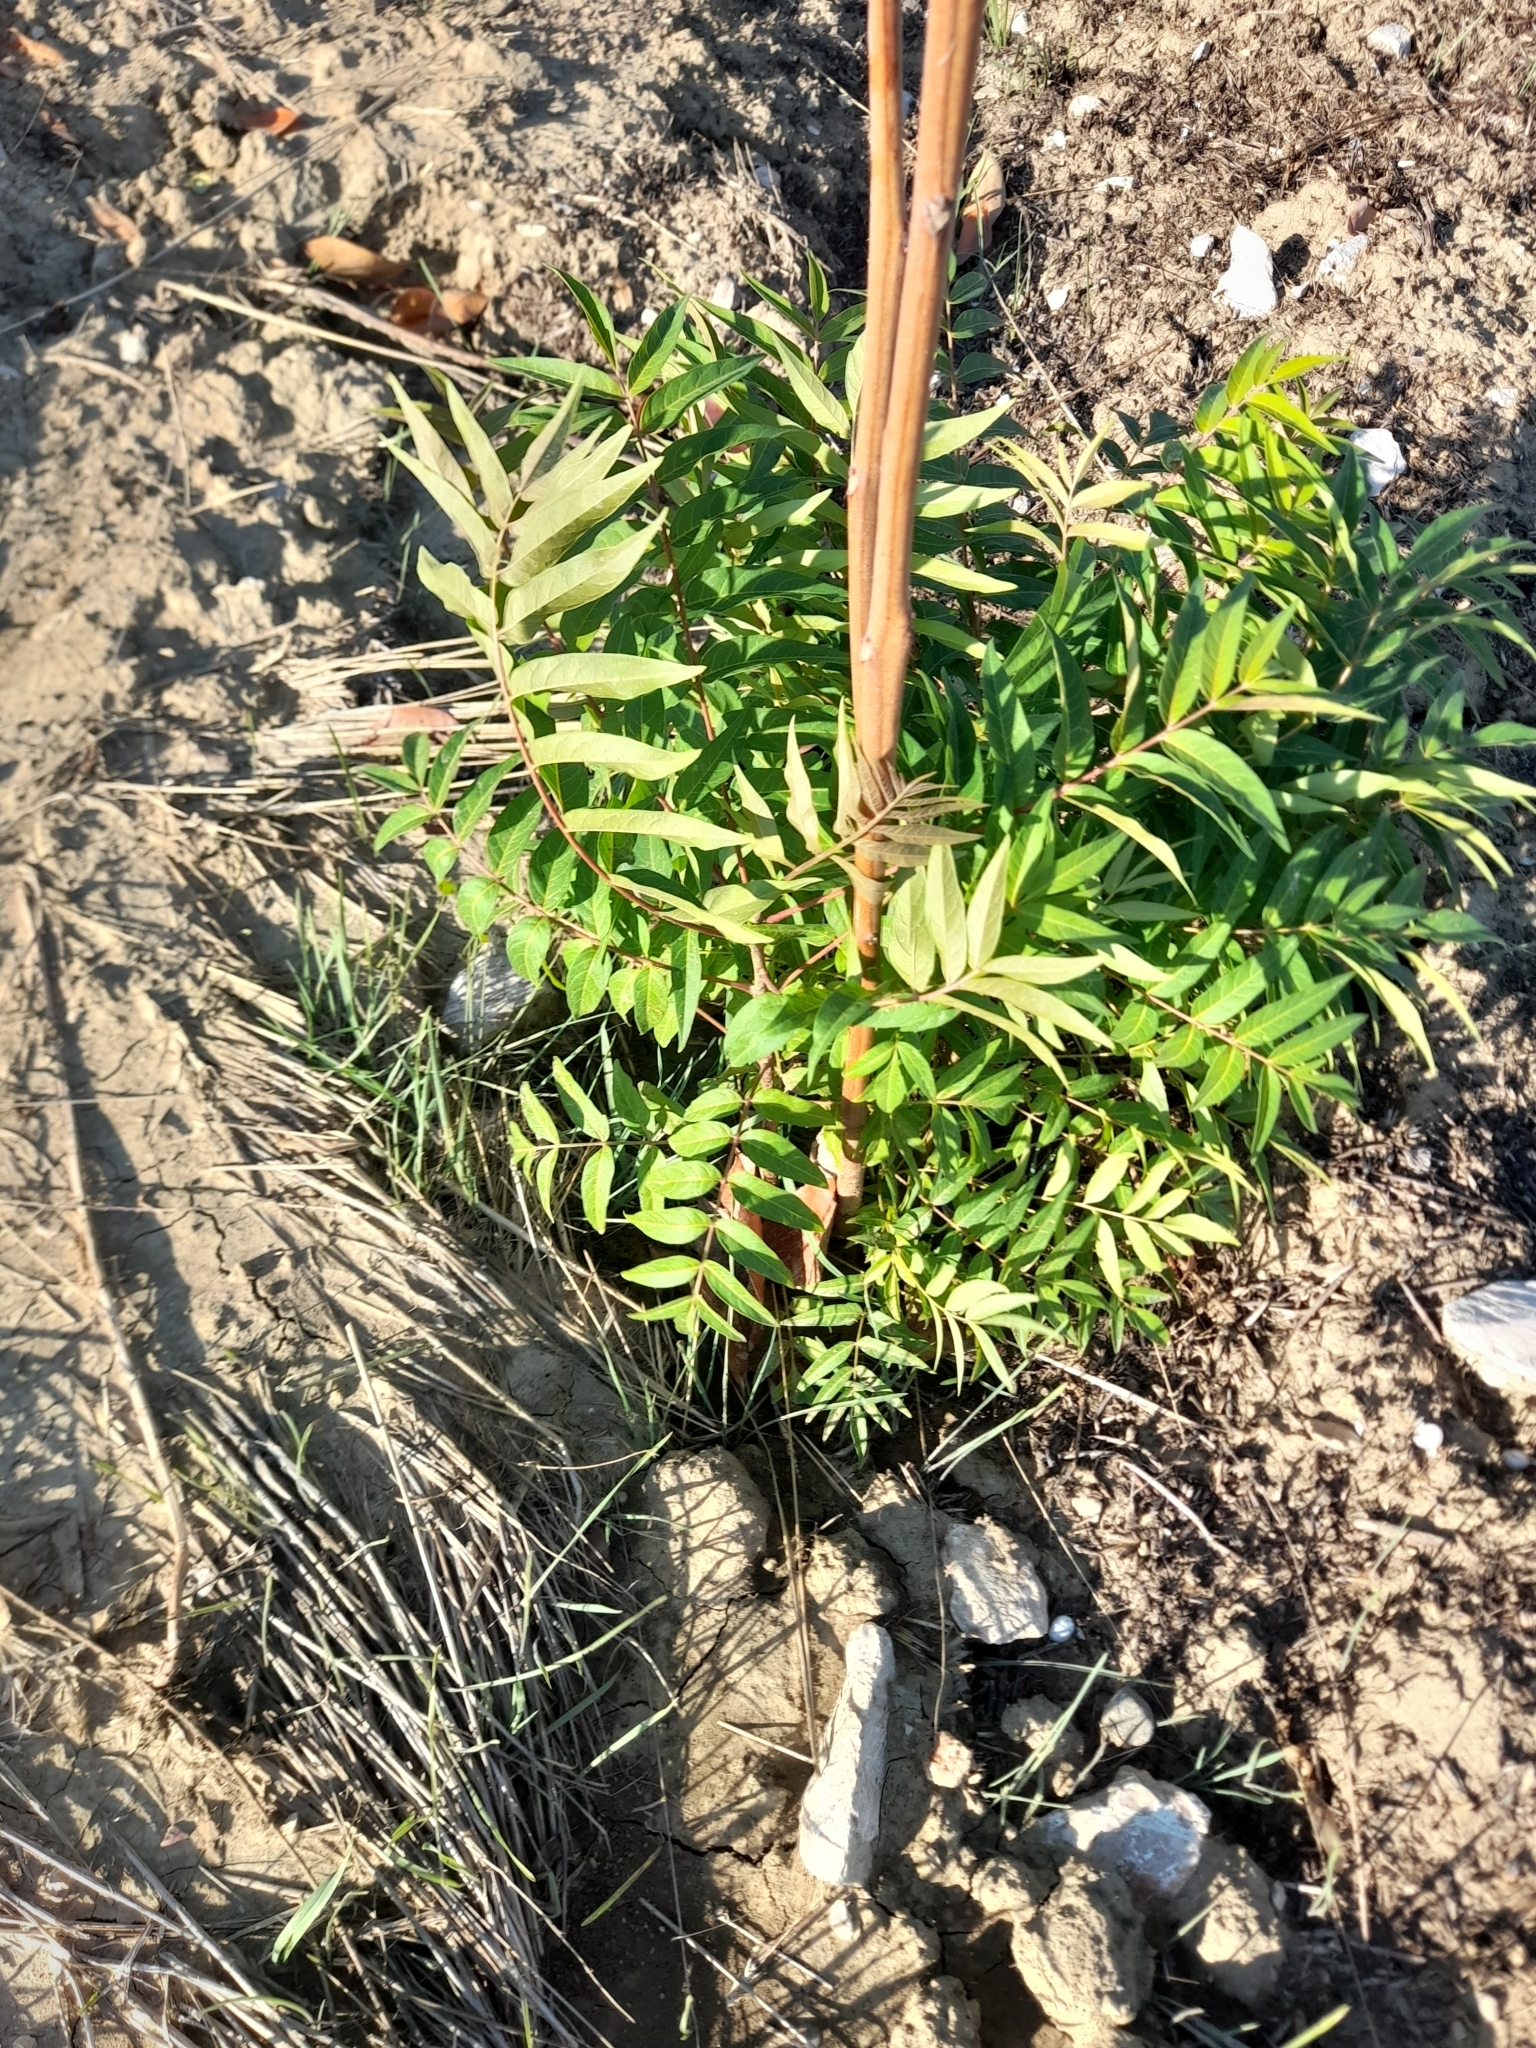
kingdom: Plantae
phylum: Tracheophyta
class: Magnoliopsida
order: Sapindales
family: Simaroubaceae
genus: Ailanthus
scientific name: Ailanthus altissima
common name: Tree-of-heaven
